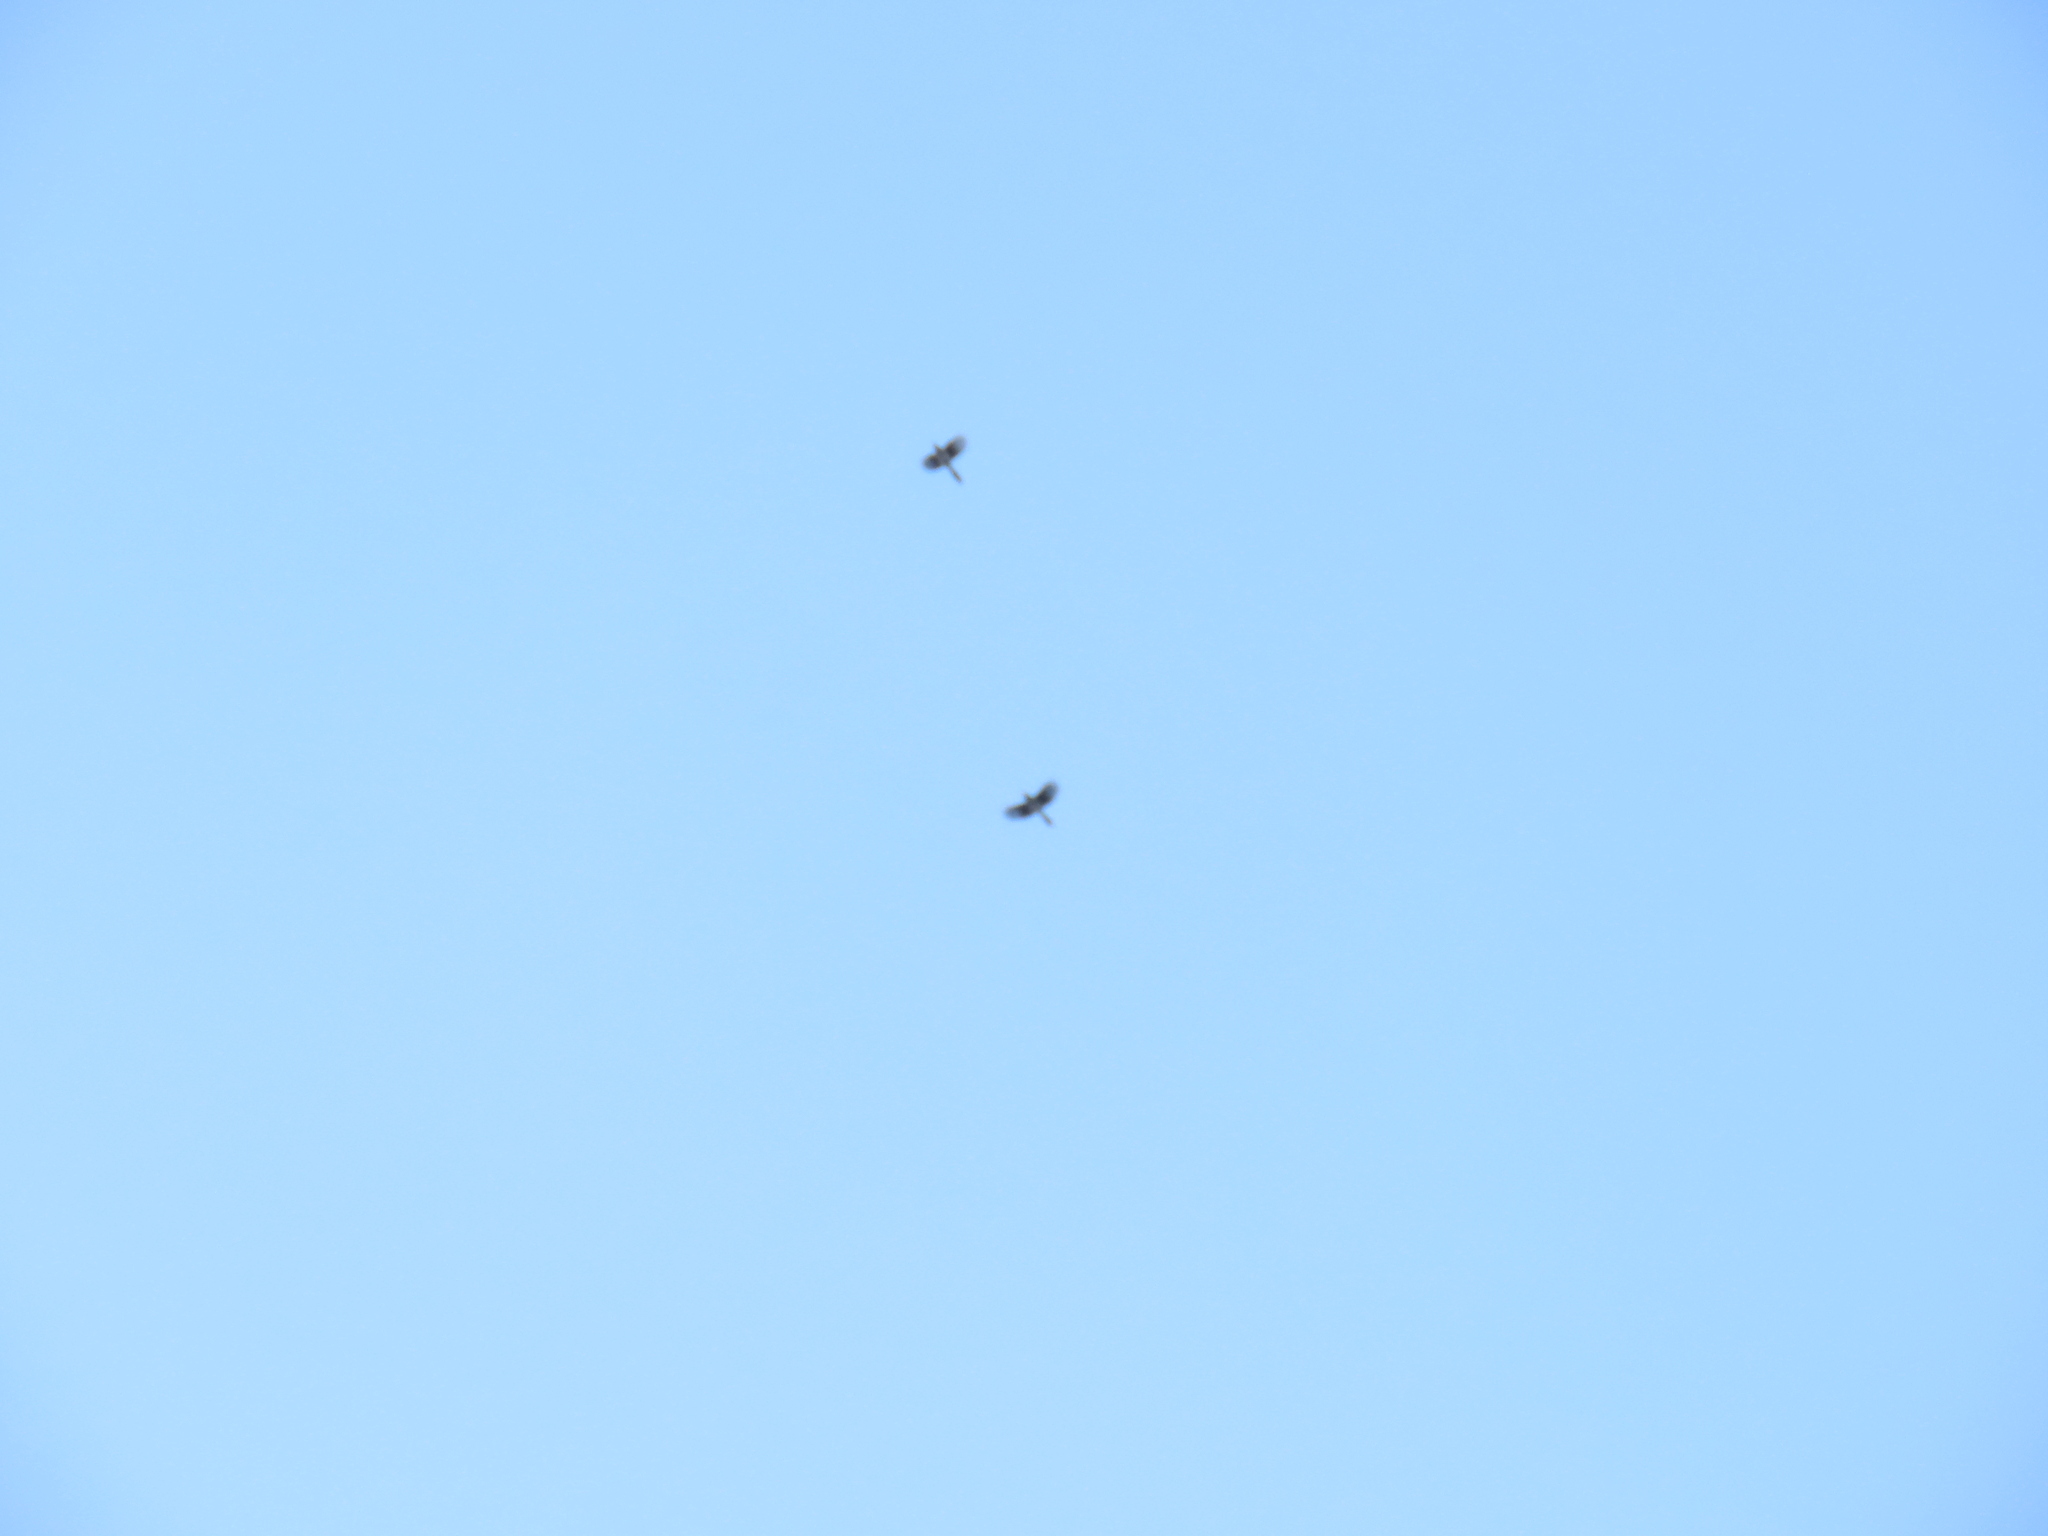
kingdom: Animalia
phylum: Chordata
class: Aves
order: Passeriformes
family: Corvidae
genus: Cyanocitta
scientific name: Cyanocitta cristata
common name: Blue jay
